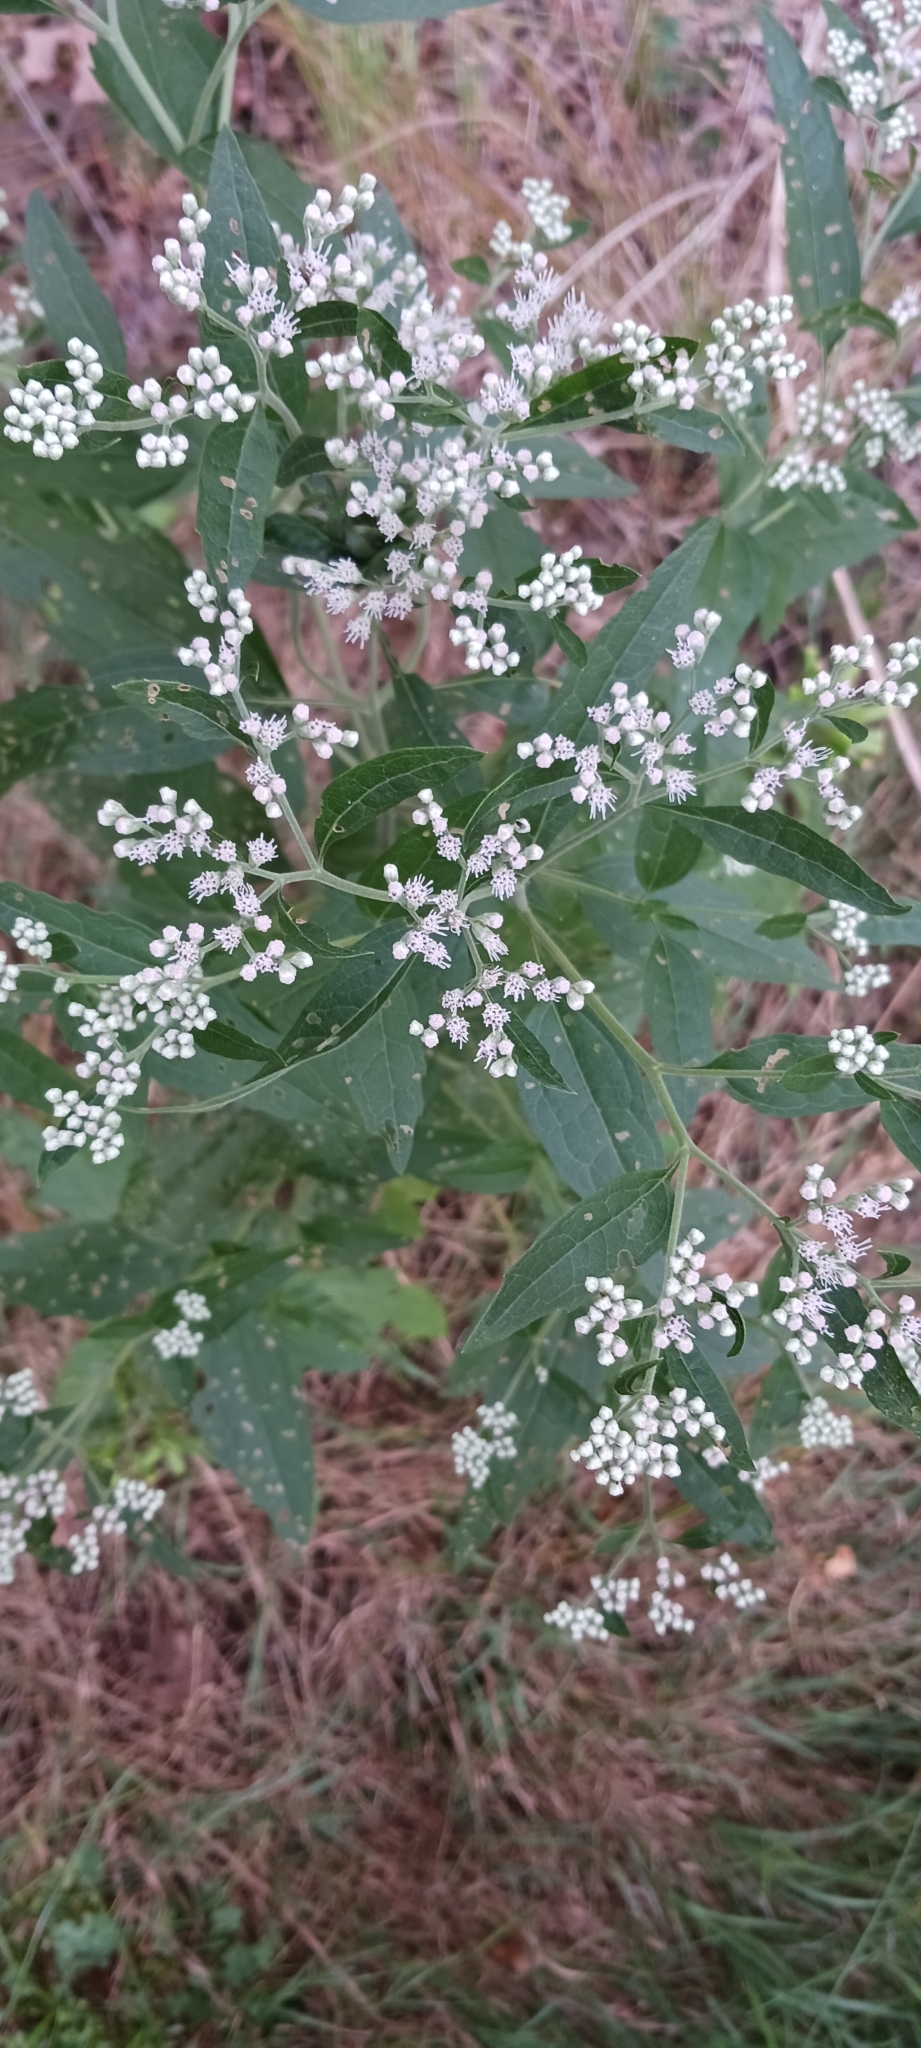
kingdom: Plantae
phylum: Tracheophyta
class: Magnoliopsida
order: Asterales
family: Asteraceae
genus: Eupatorium
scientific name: Eupatorium serotinum
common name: Late boneset
